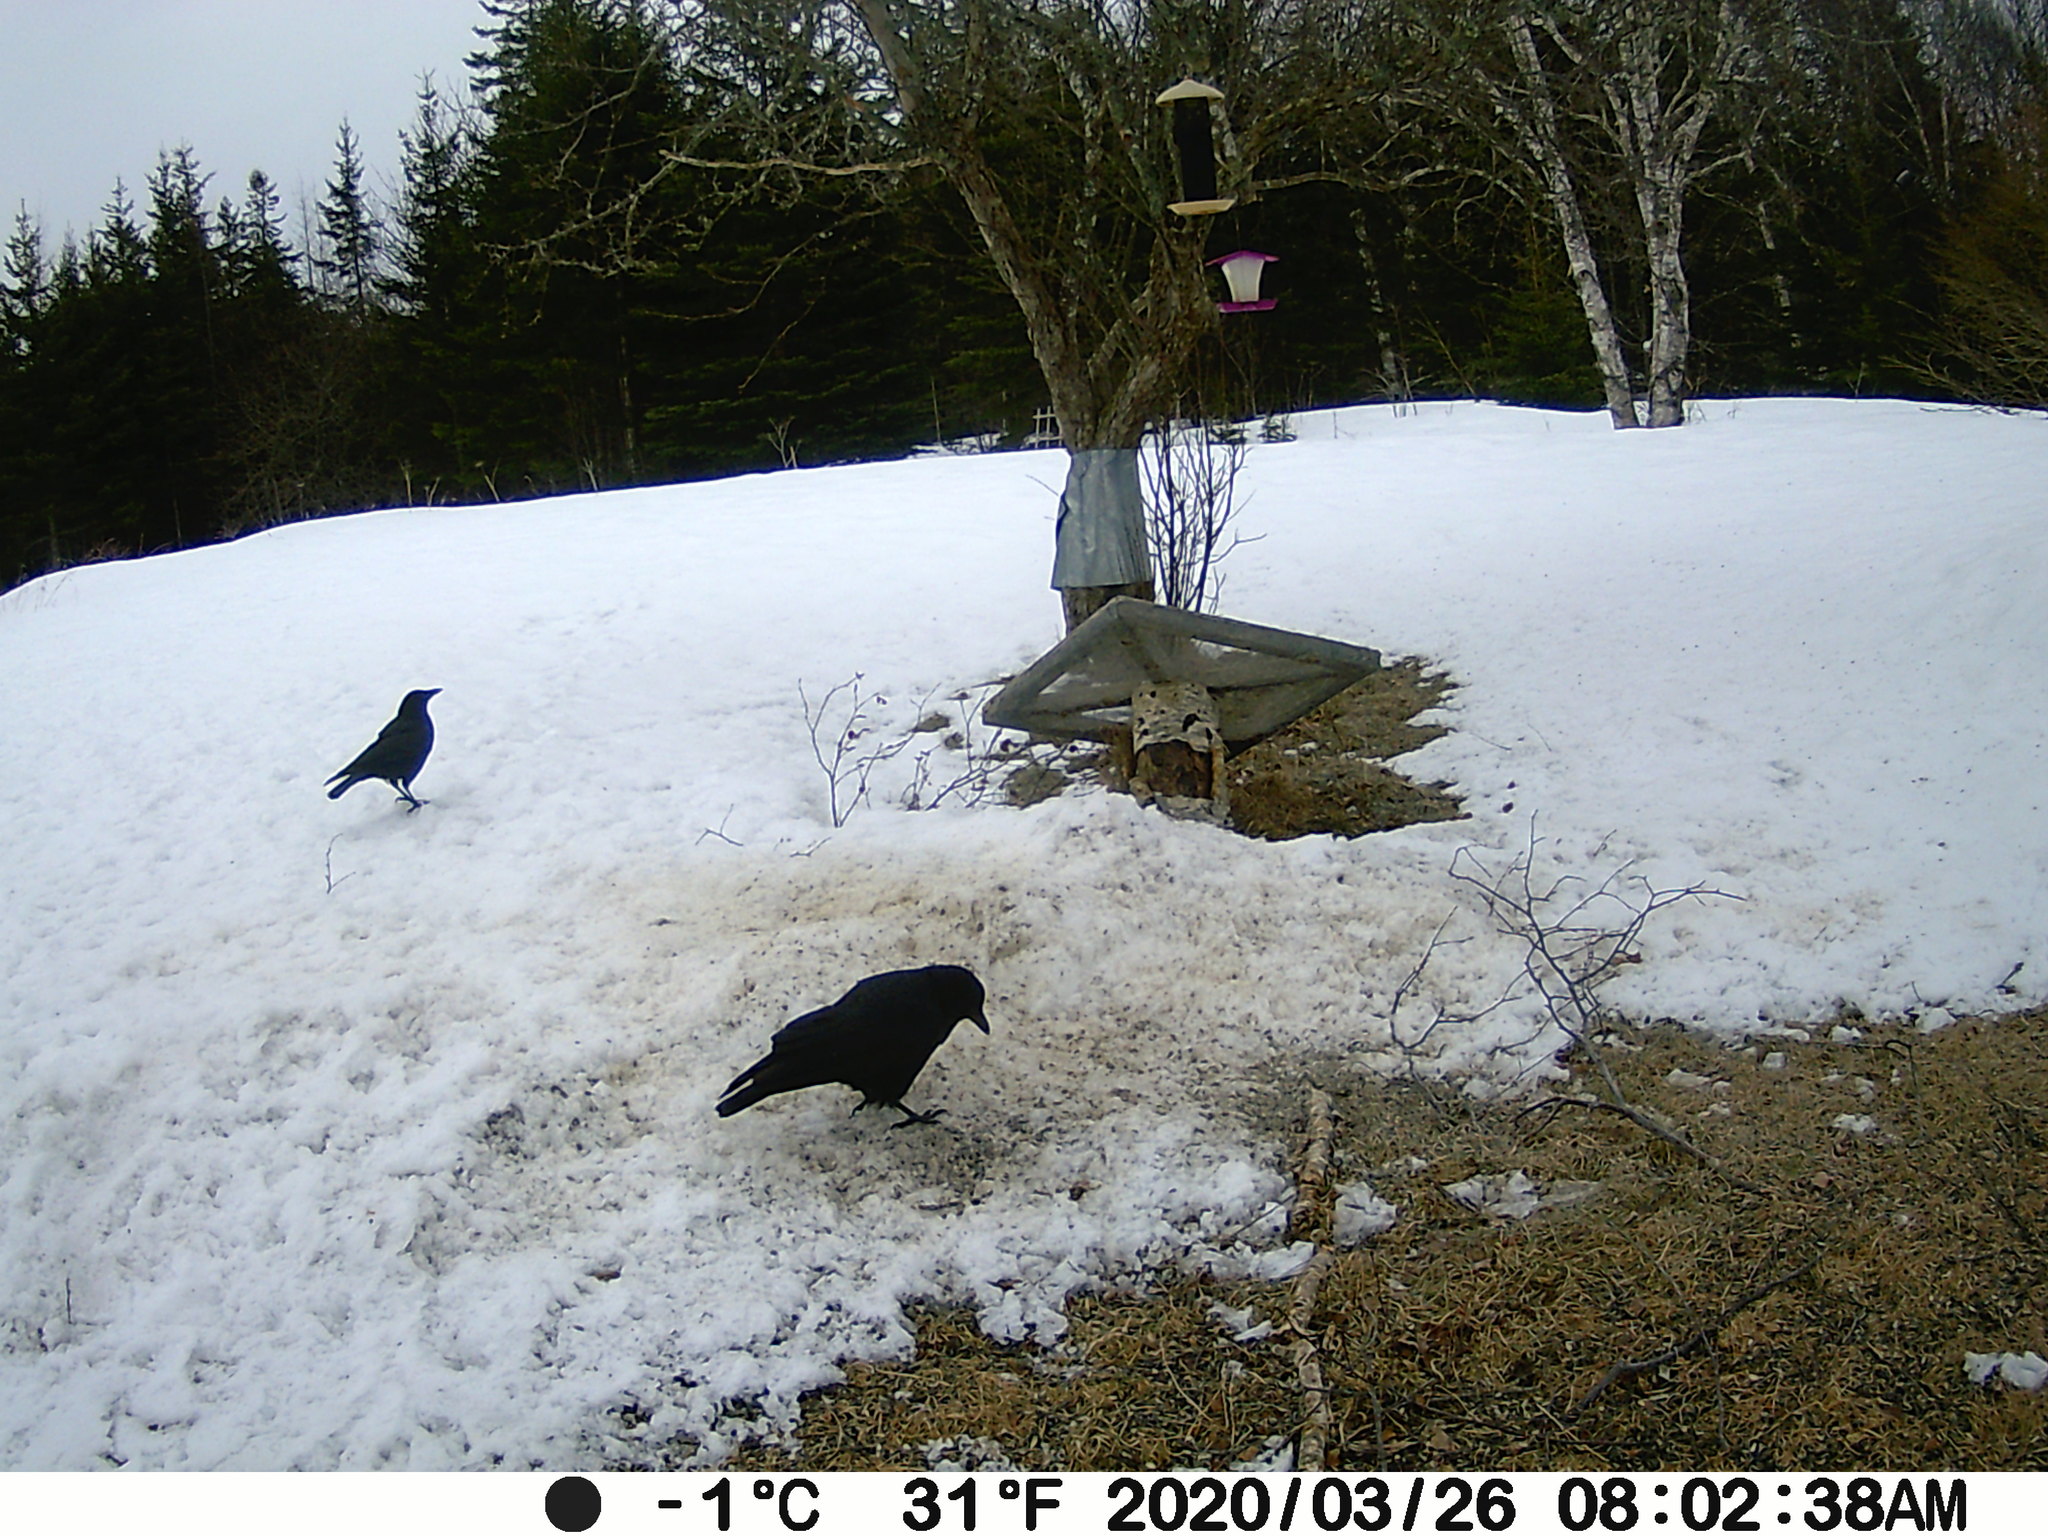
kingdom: Animalia
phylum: Chordata
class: Aves
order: Passeriformes
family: Corvidae
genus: Corvus
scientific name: Corvus brachyrhynchos
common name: American crow
